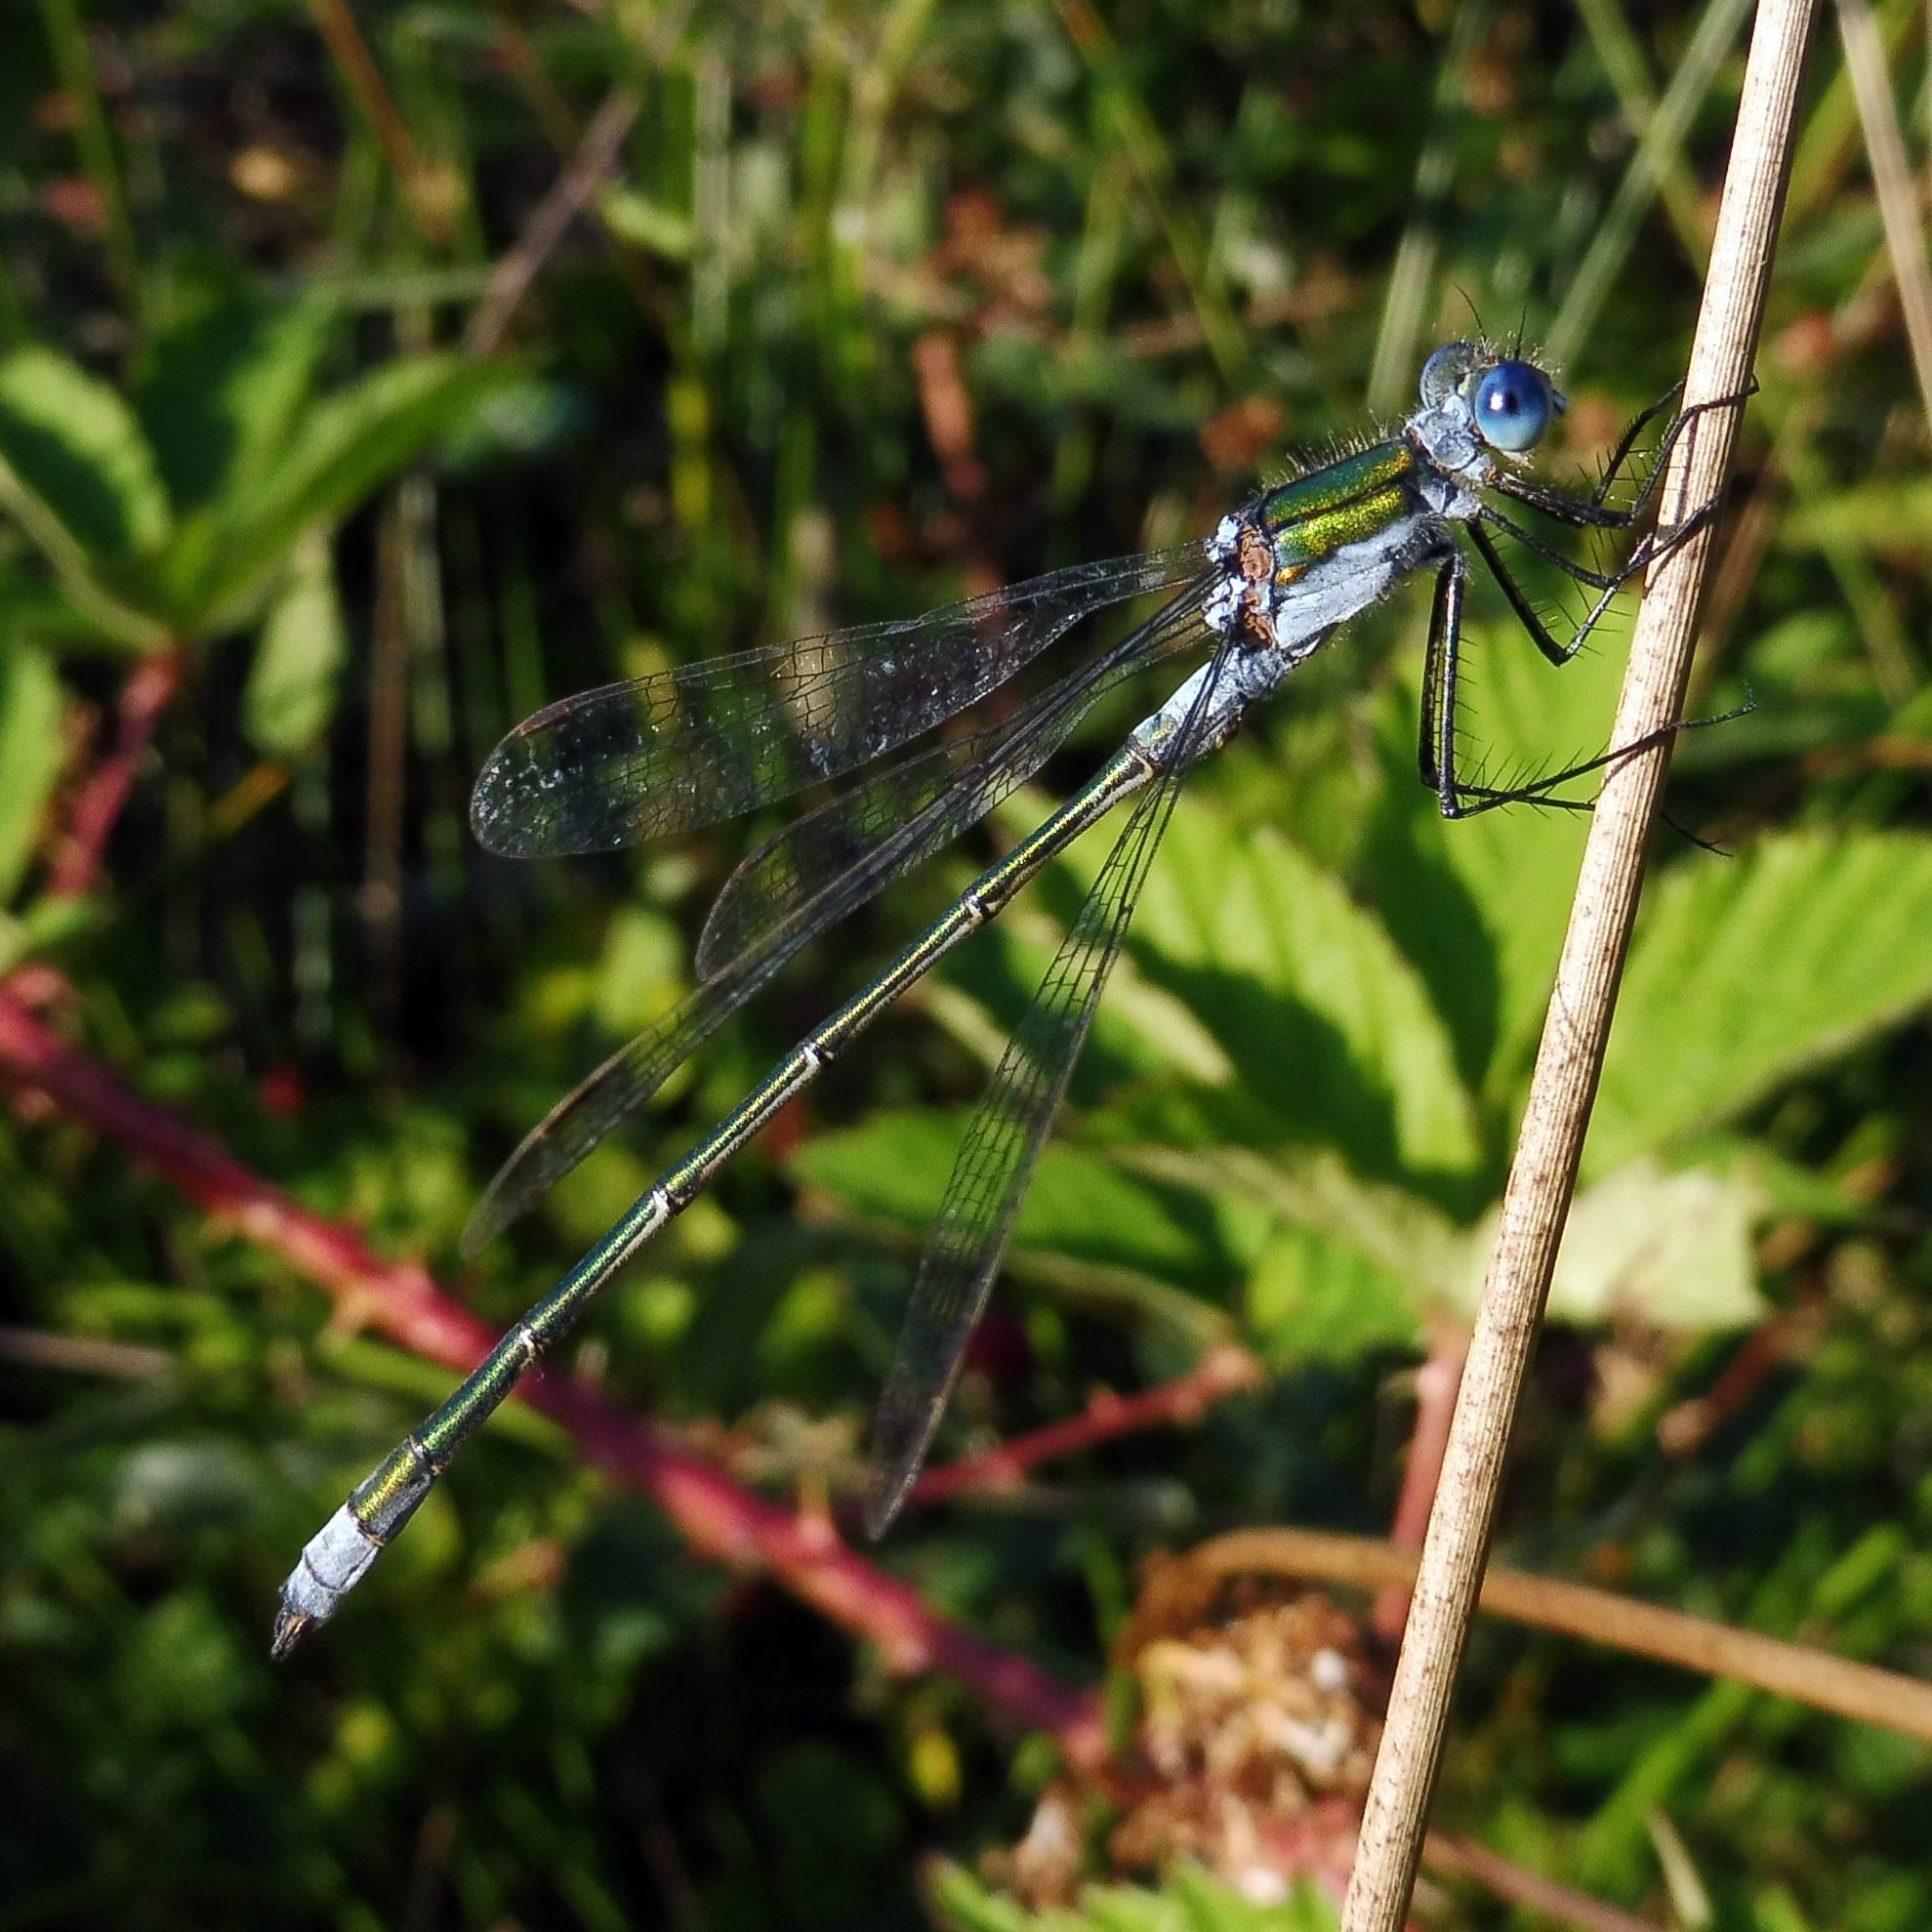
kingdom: Animalia
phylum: Arthropoda
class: Insecta
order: Odonata
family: Lestidae
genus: Lestes
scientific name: Lestes sponsa
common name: Common spreadwing
